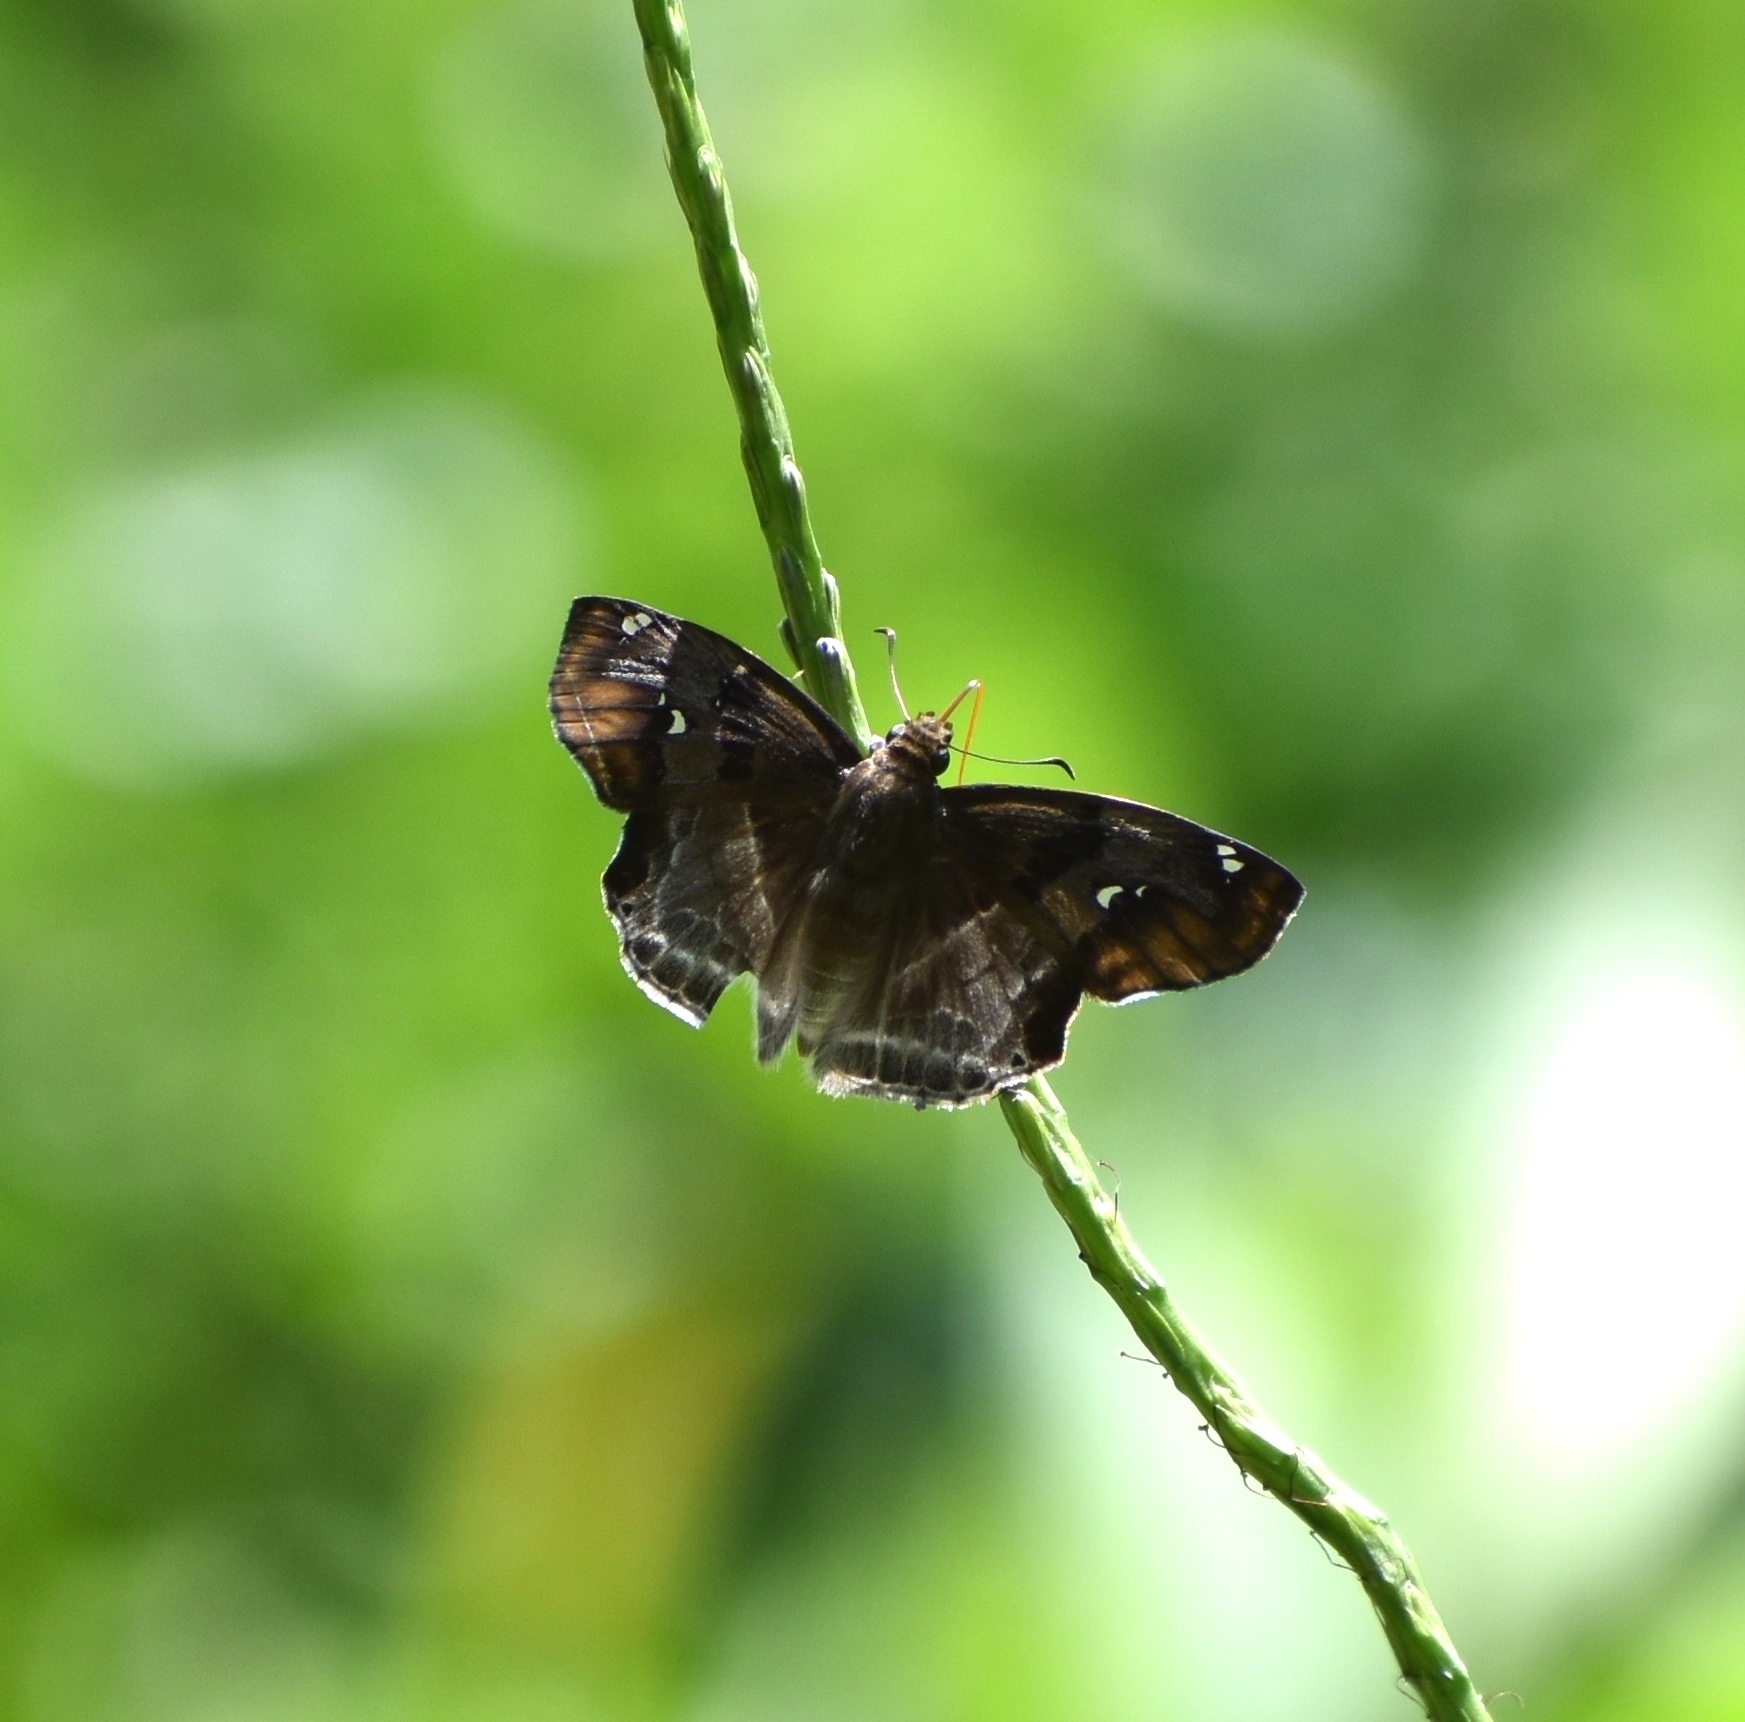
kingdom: Animalia
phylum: Arthropoda
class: Insecta
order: Lepidoptera
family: Hesperiidae
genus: Odontoptilum
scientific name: Odontoptilum angulata
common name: Chestnut banded angle
